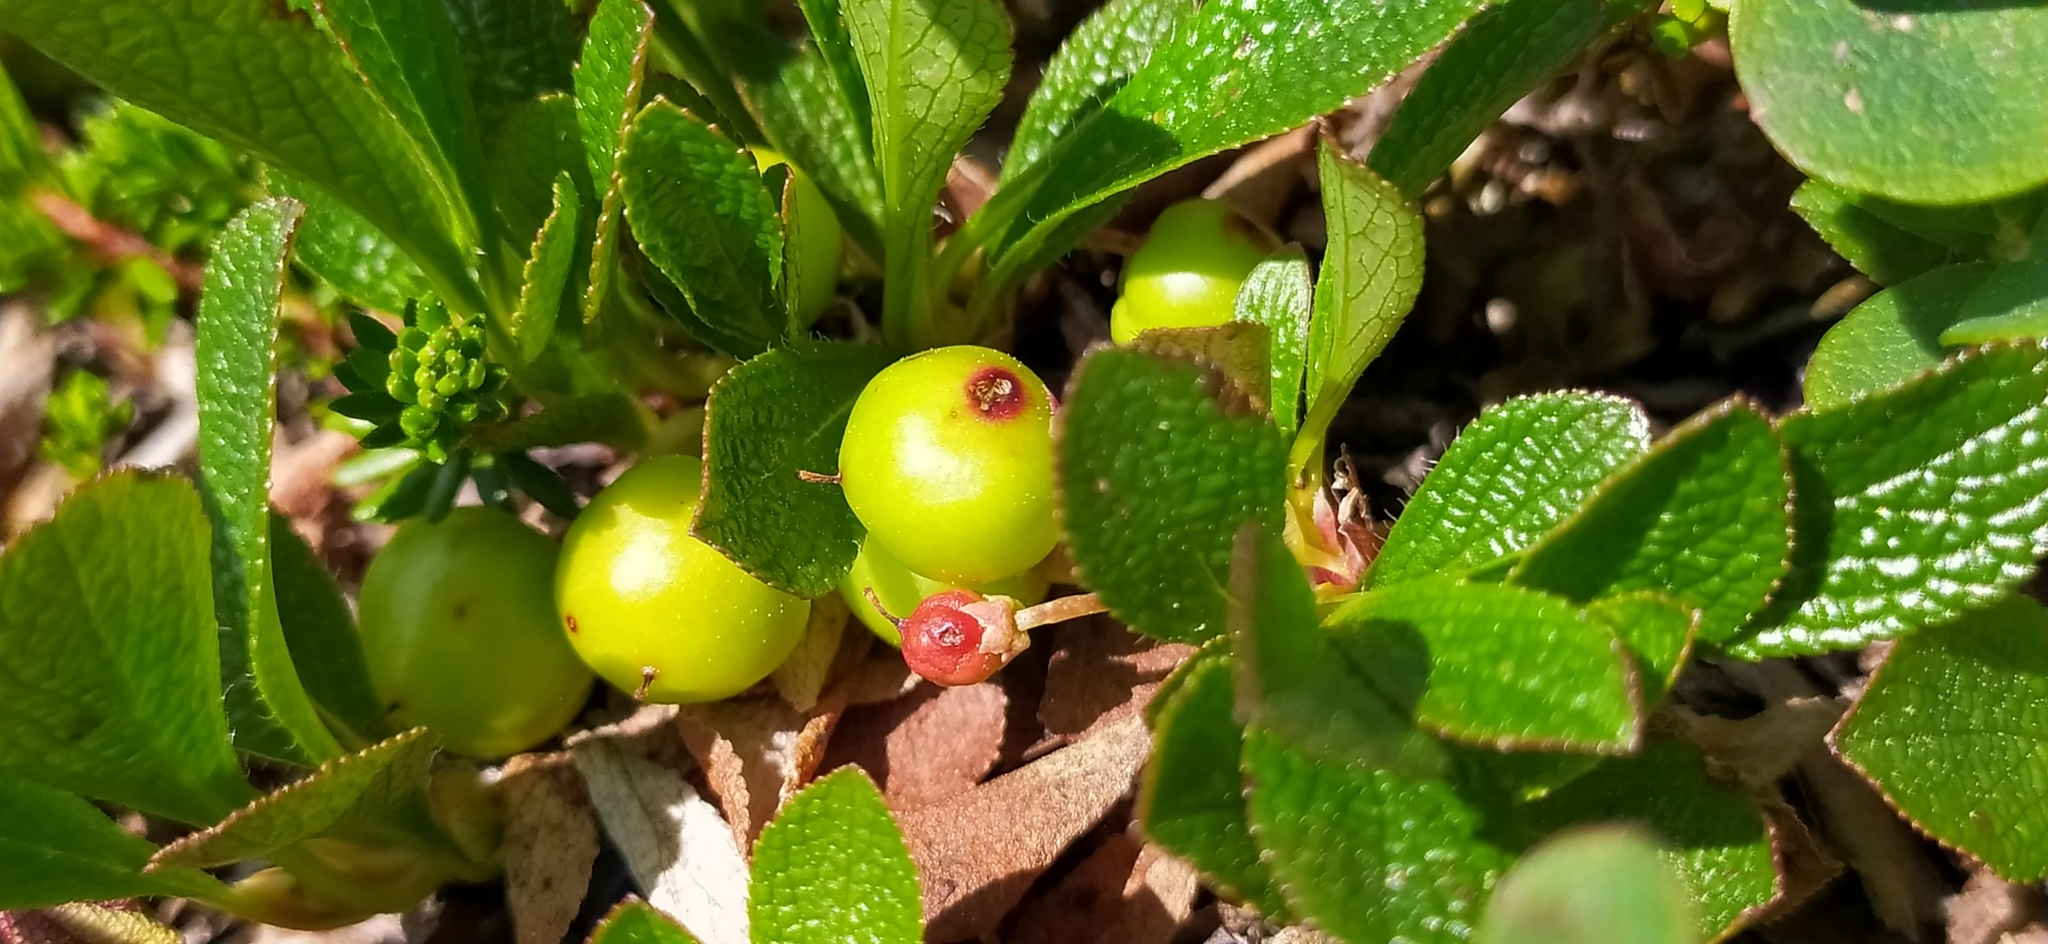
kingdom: Plantae
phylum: Tracheophyta
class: Magnoliopsida
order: Ericales
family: Ericaceae
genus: Arctostaphylos
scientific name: Arctostaphylos alpinus
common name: Alpine bearberry
